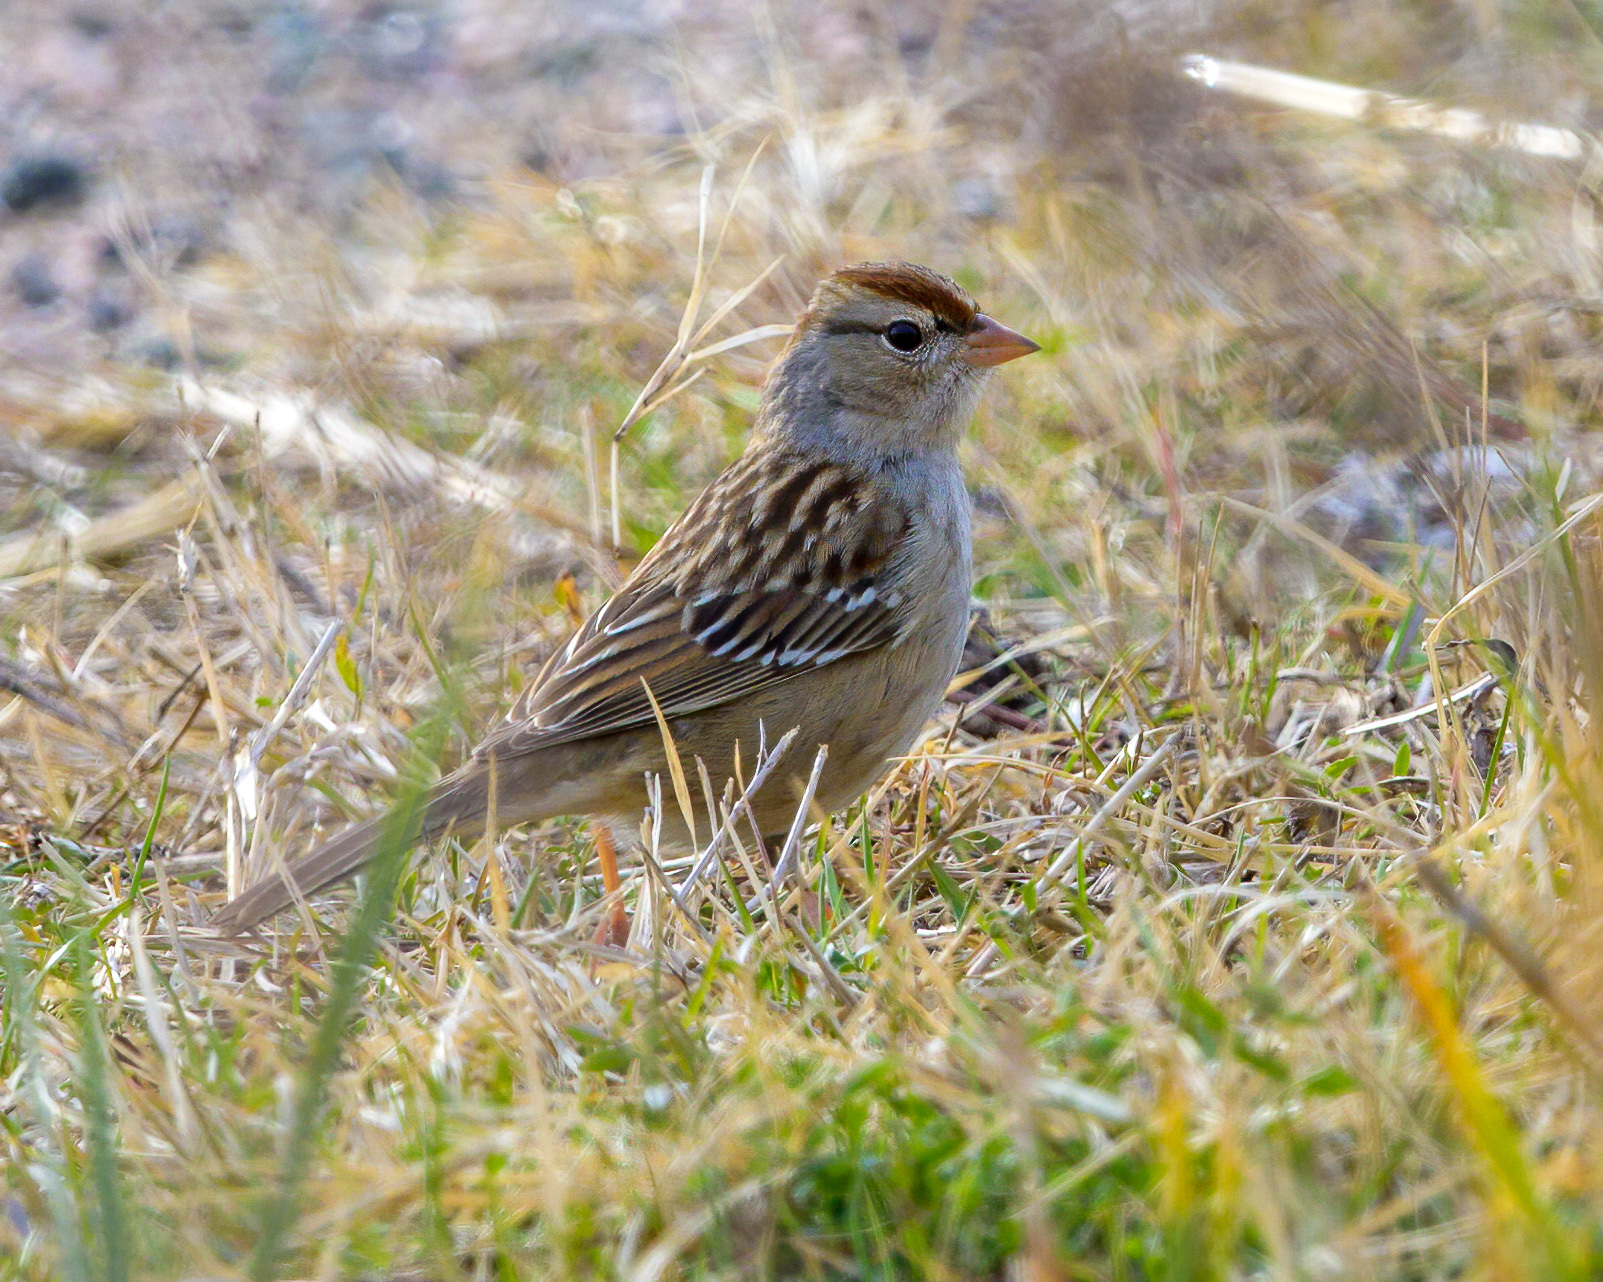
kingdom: Animalia
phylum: Chordata
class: Aves
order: Passeriformes
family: Passerellidae
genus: Zonotrichia
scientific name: Zonotrichia leucophrys
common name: White-crowned sparrow
